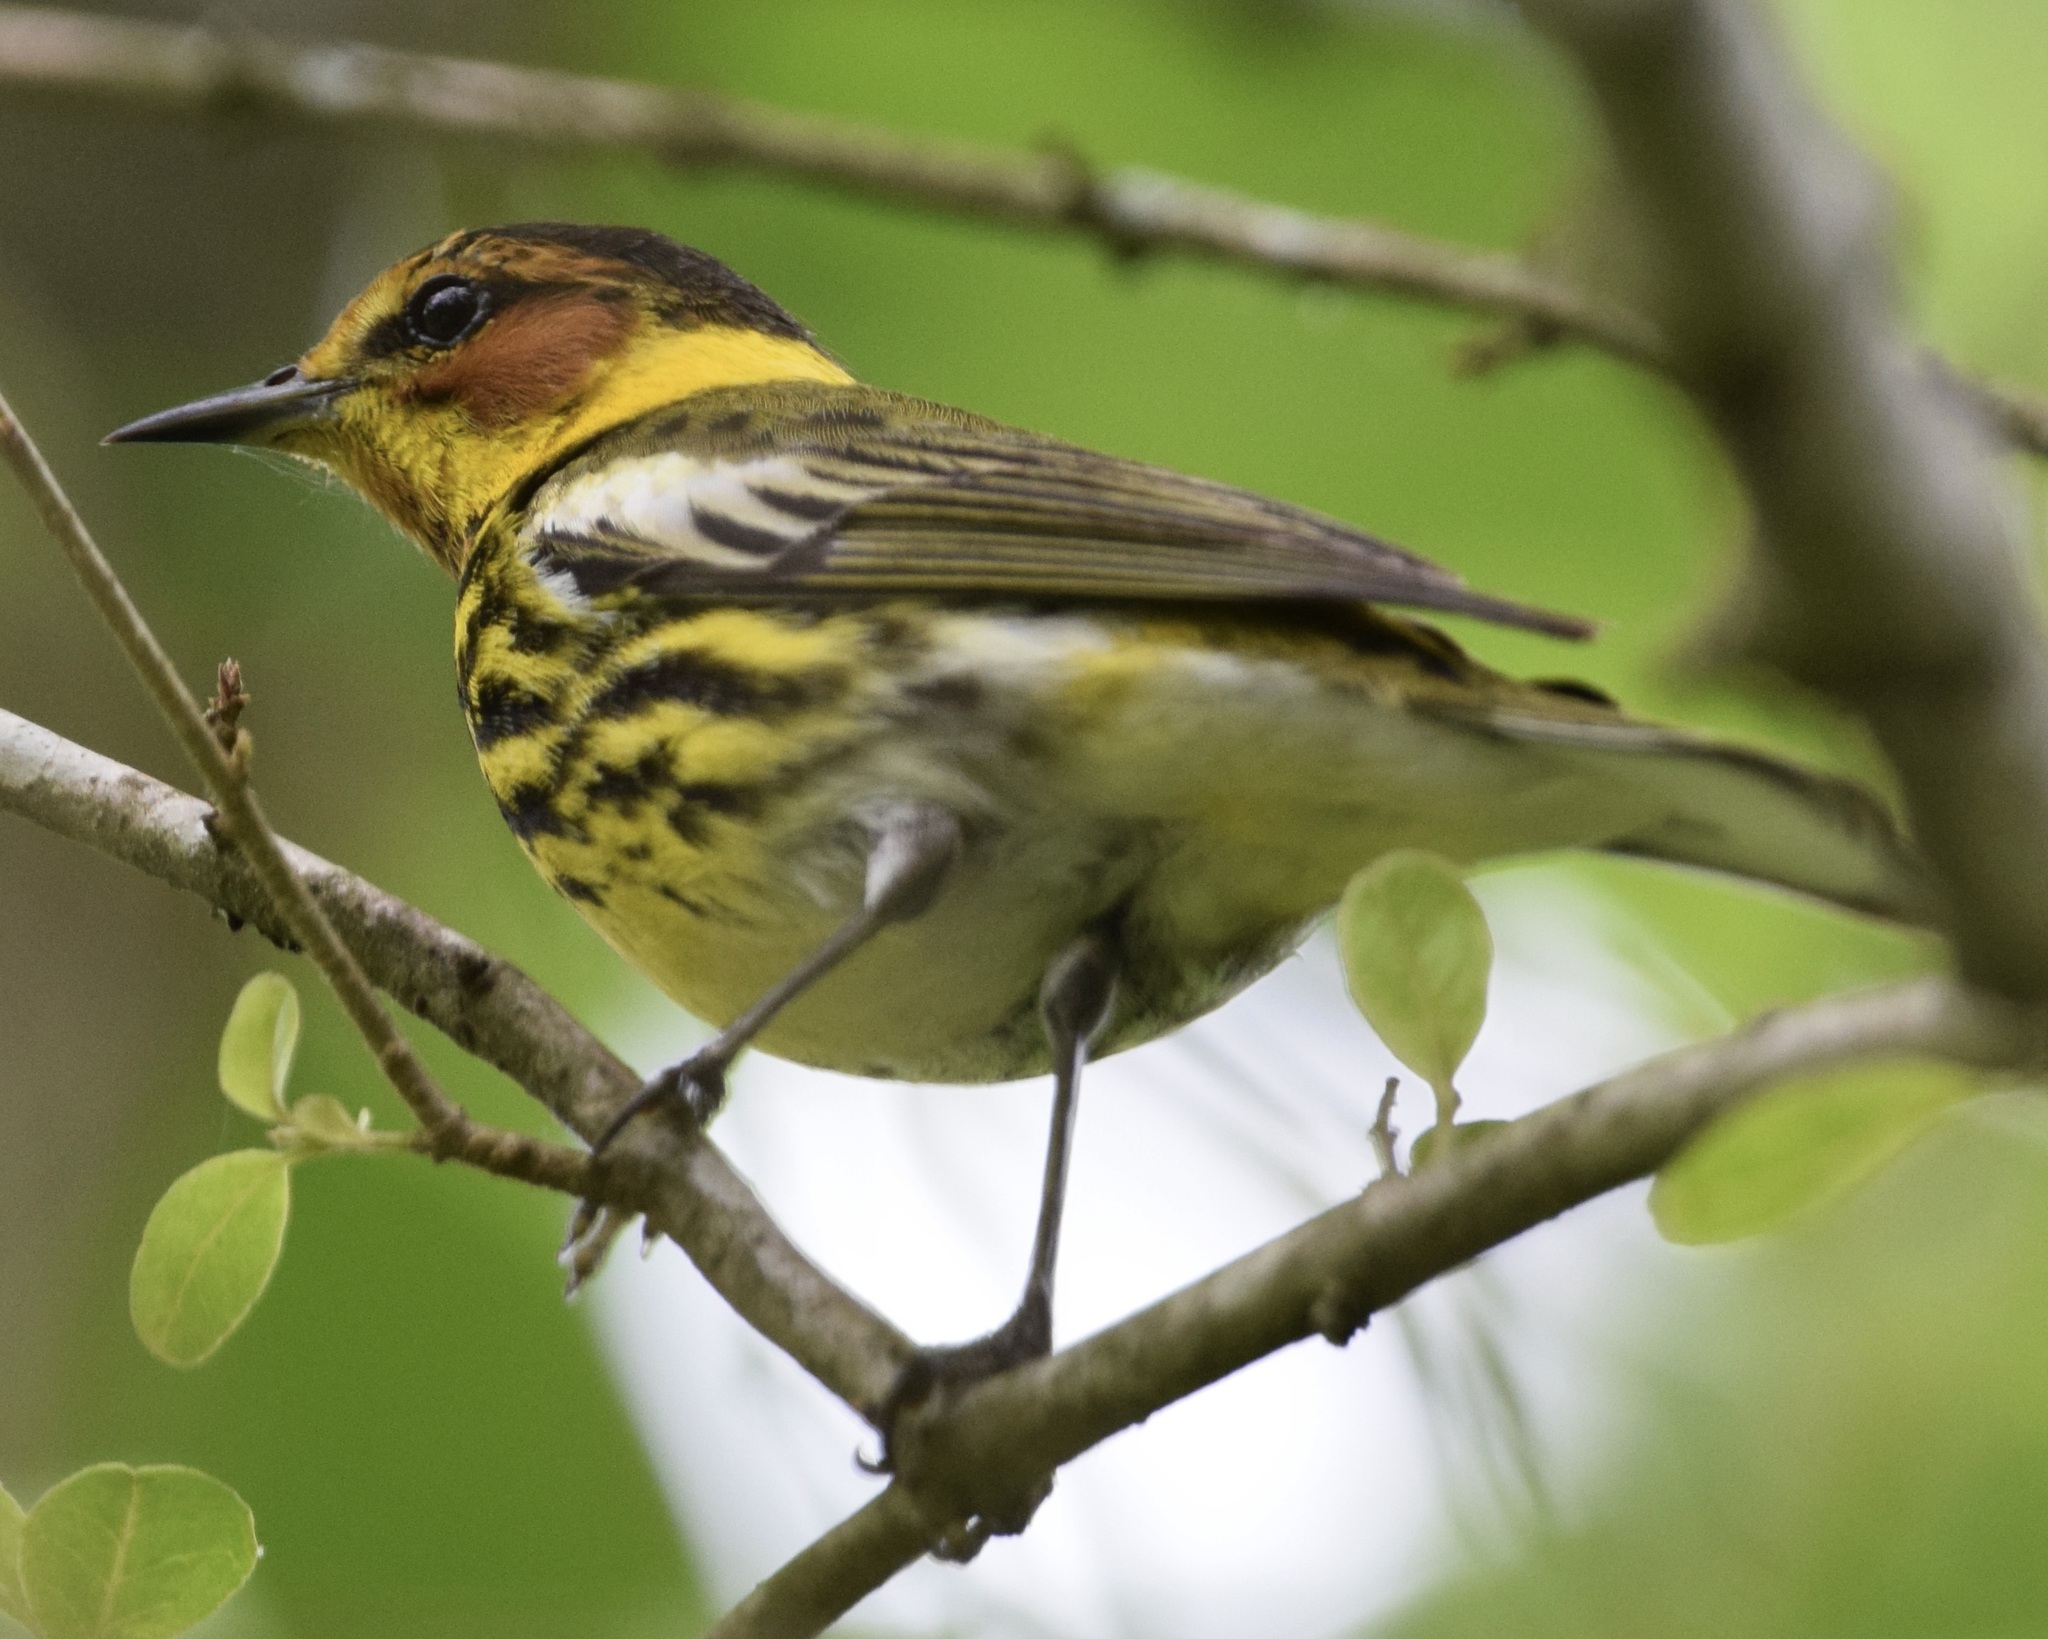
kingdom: Animalia
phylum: Chordata
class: Aves
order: Passeriformes
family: Parulidae
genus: Setophaga
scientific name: Setophaga tigrina
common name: Cape may warbler
